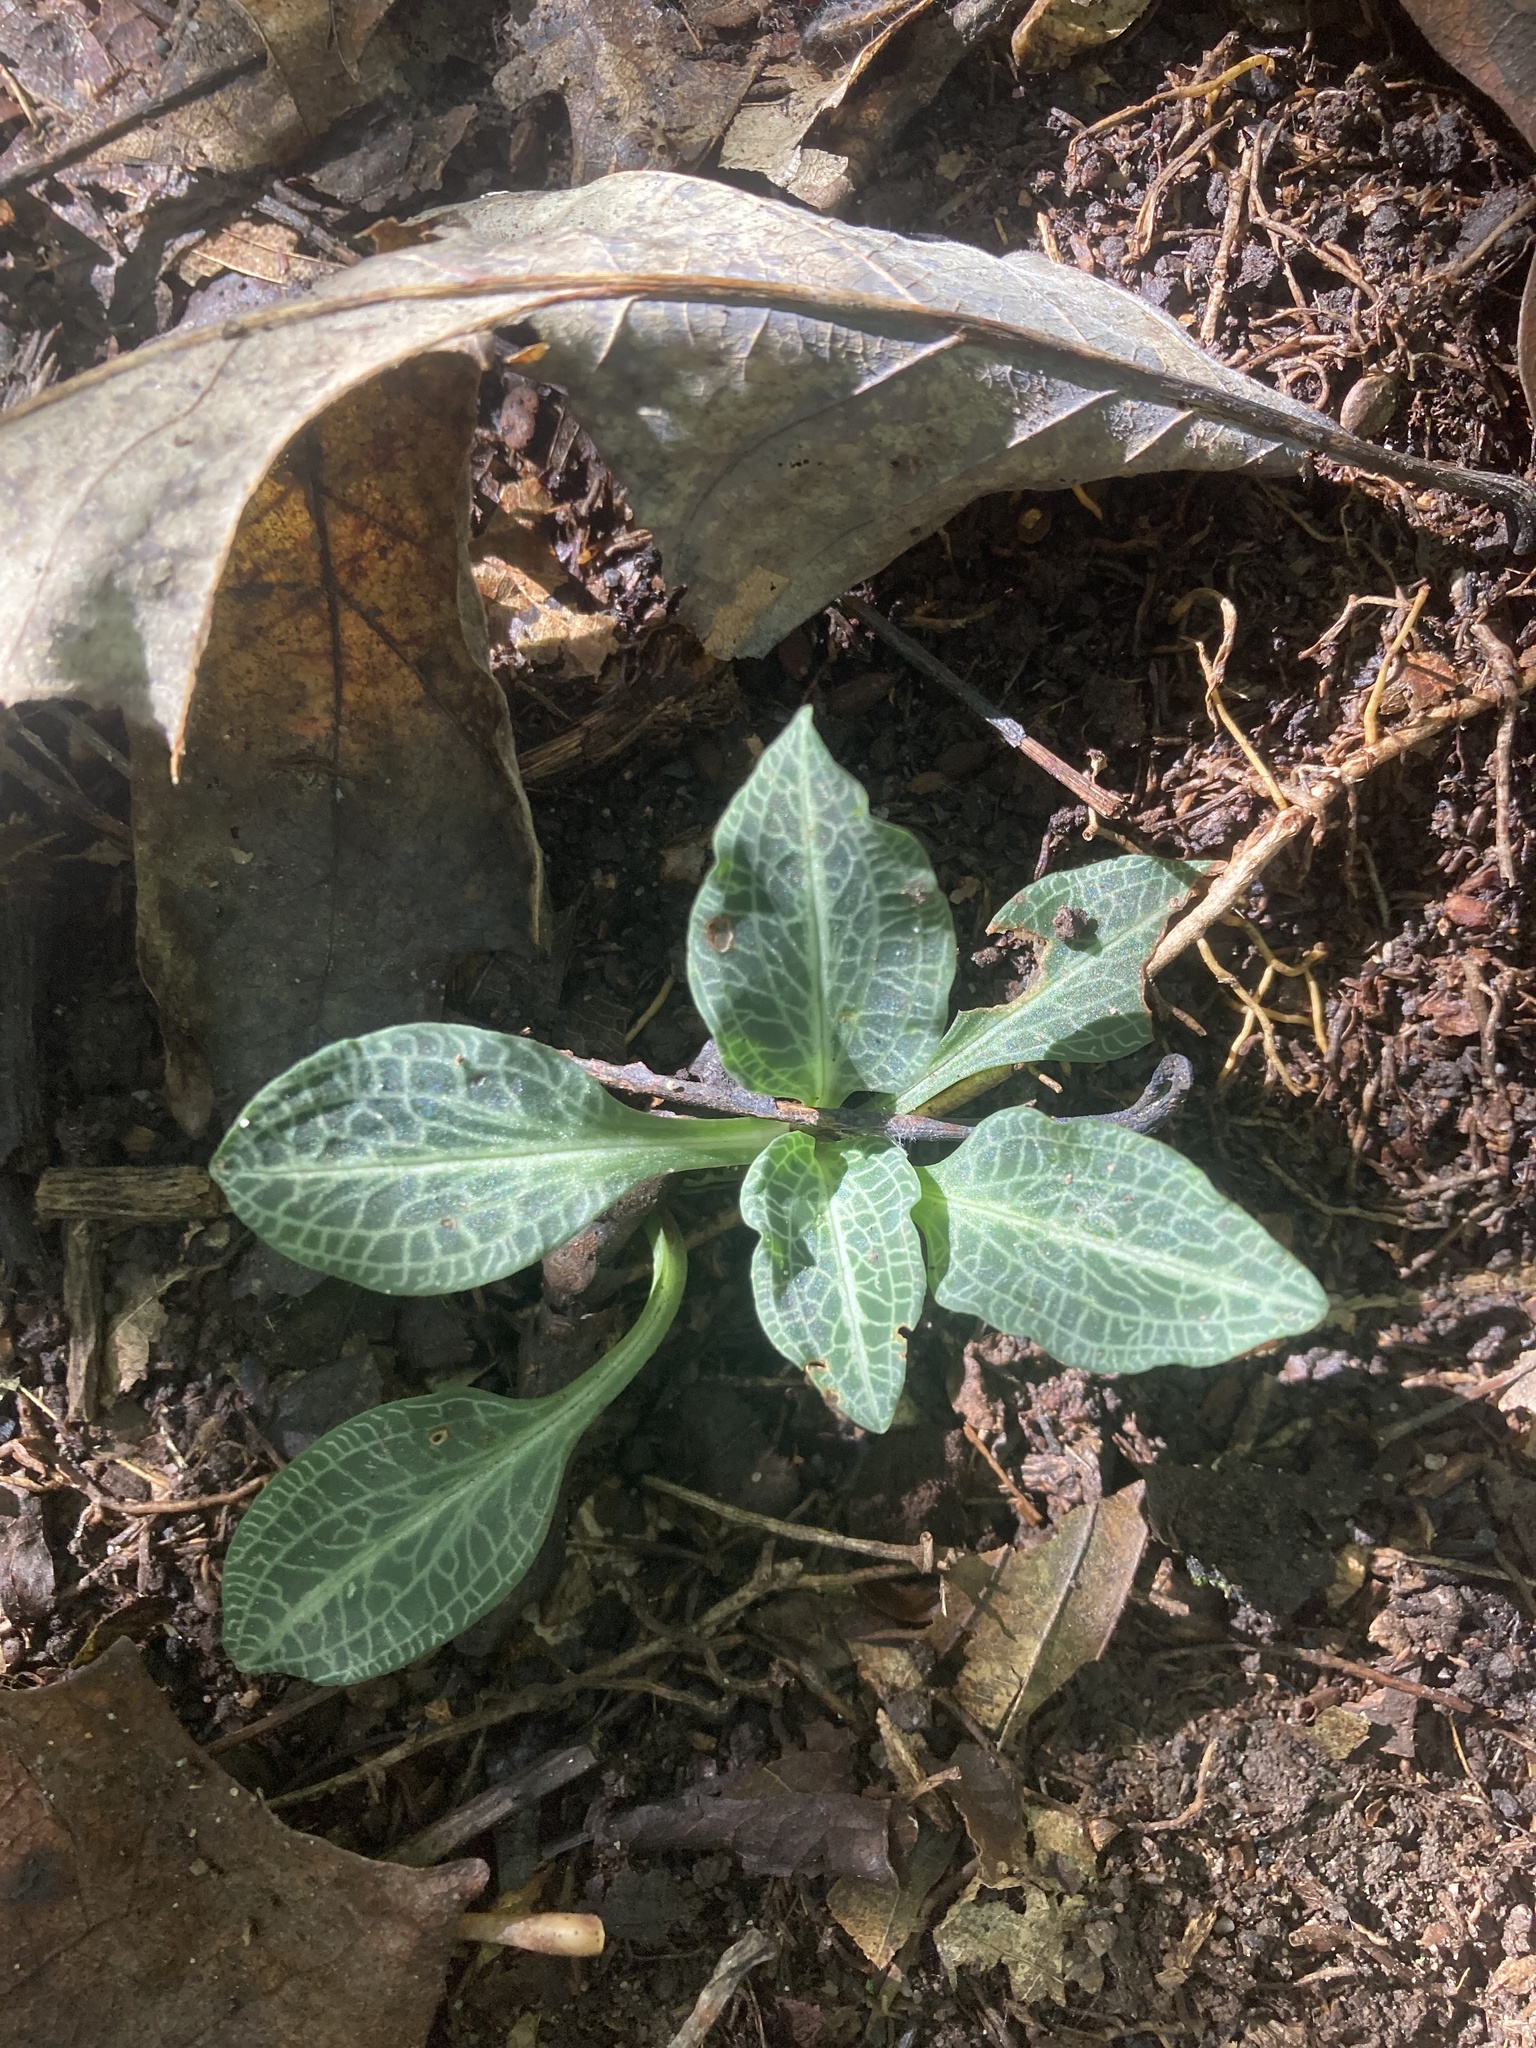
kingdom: Plantae
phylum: Tracheophyta
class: Liliopsida
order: Asparagales
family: Orchidaceae
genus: Goodyera
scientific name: Goodyera pubescens
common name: Downy rattlesnake-plantain
